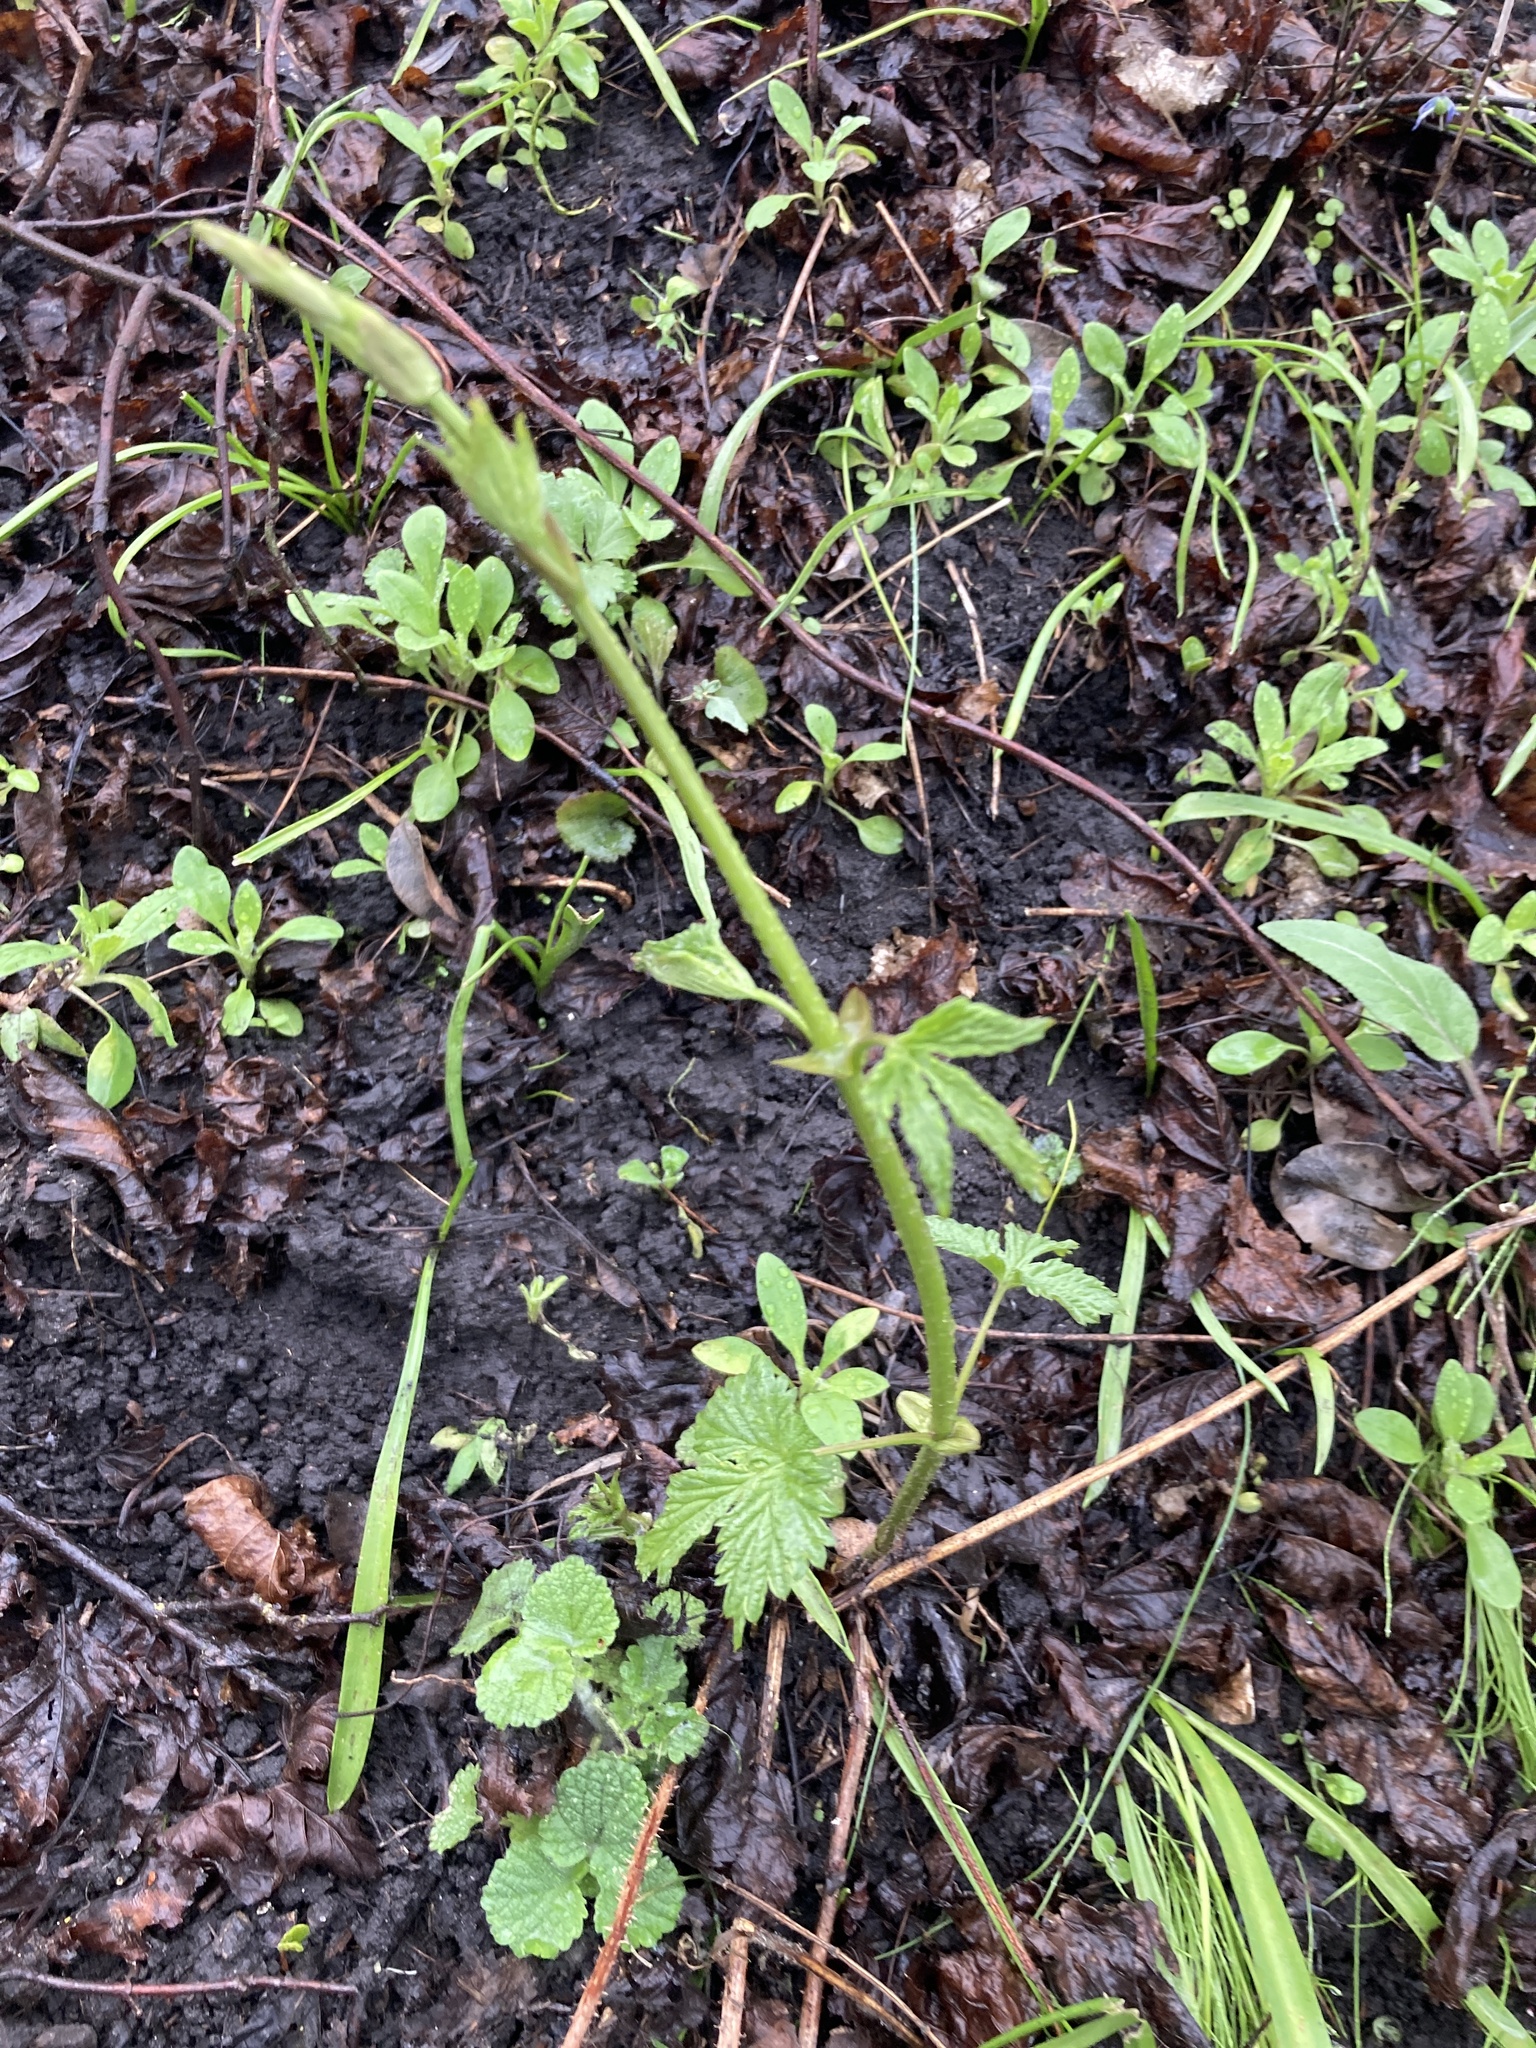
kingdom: Plantae
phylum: Tracheophyta
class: Magnoliopsida
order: Rosales
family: Cannabaceae
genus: Humulus
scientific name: Humulus lupulus
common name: Hop
